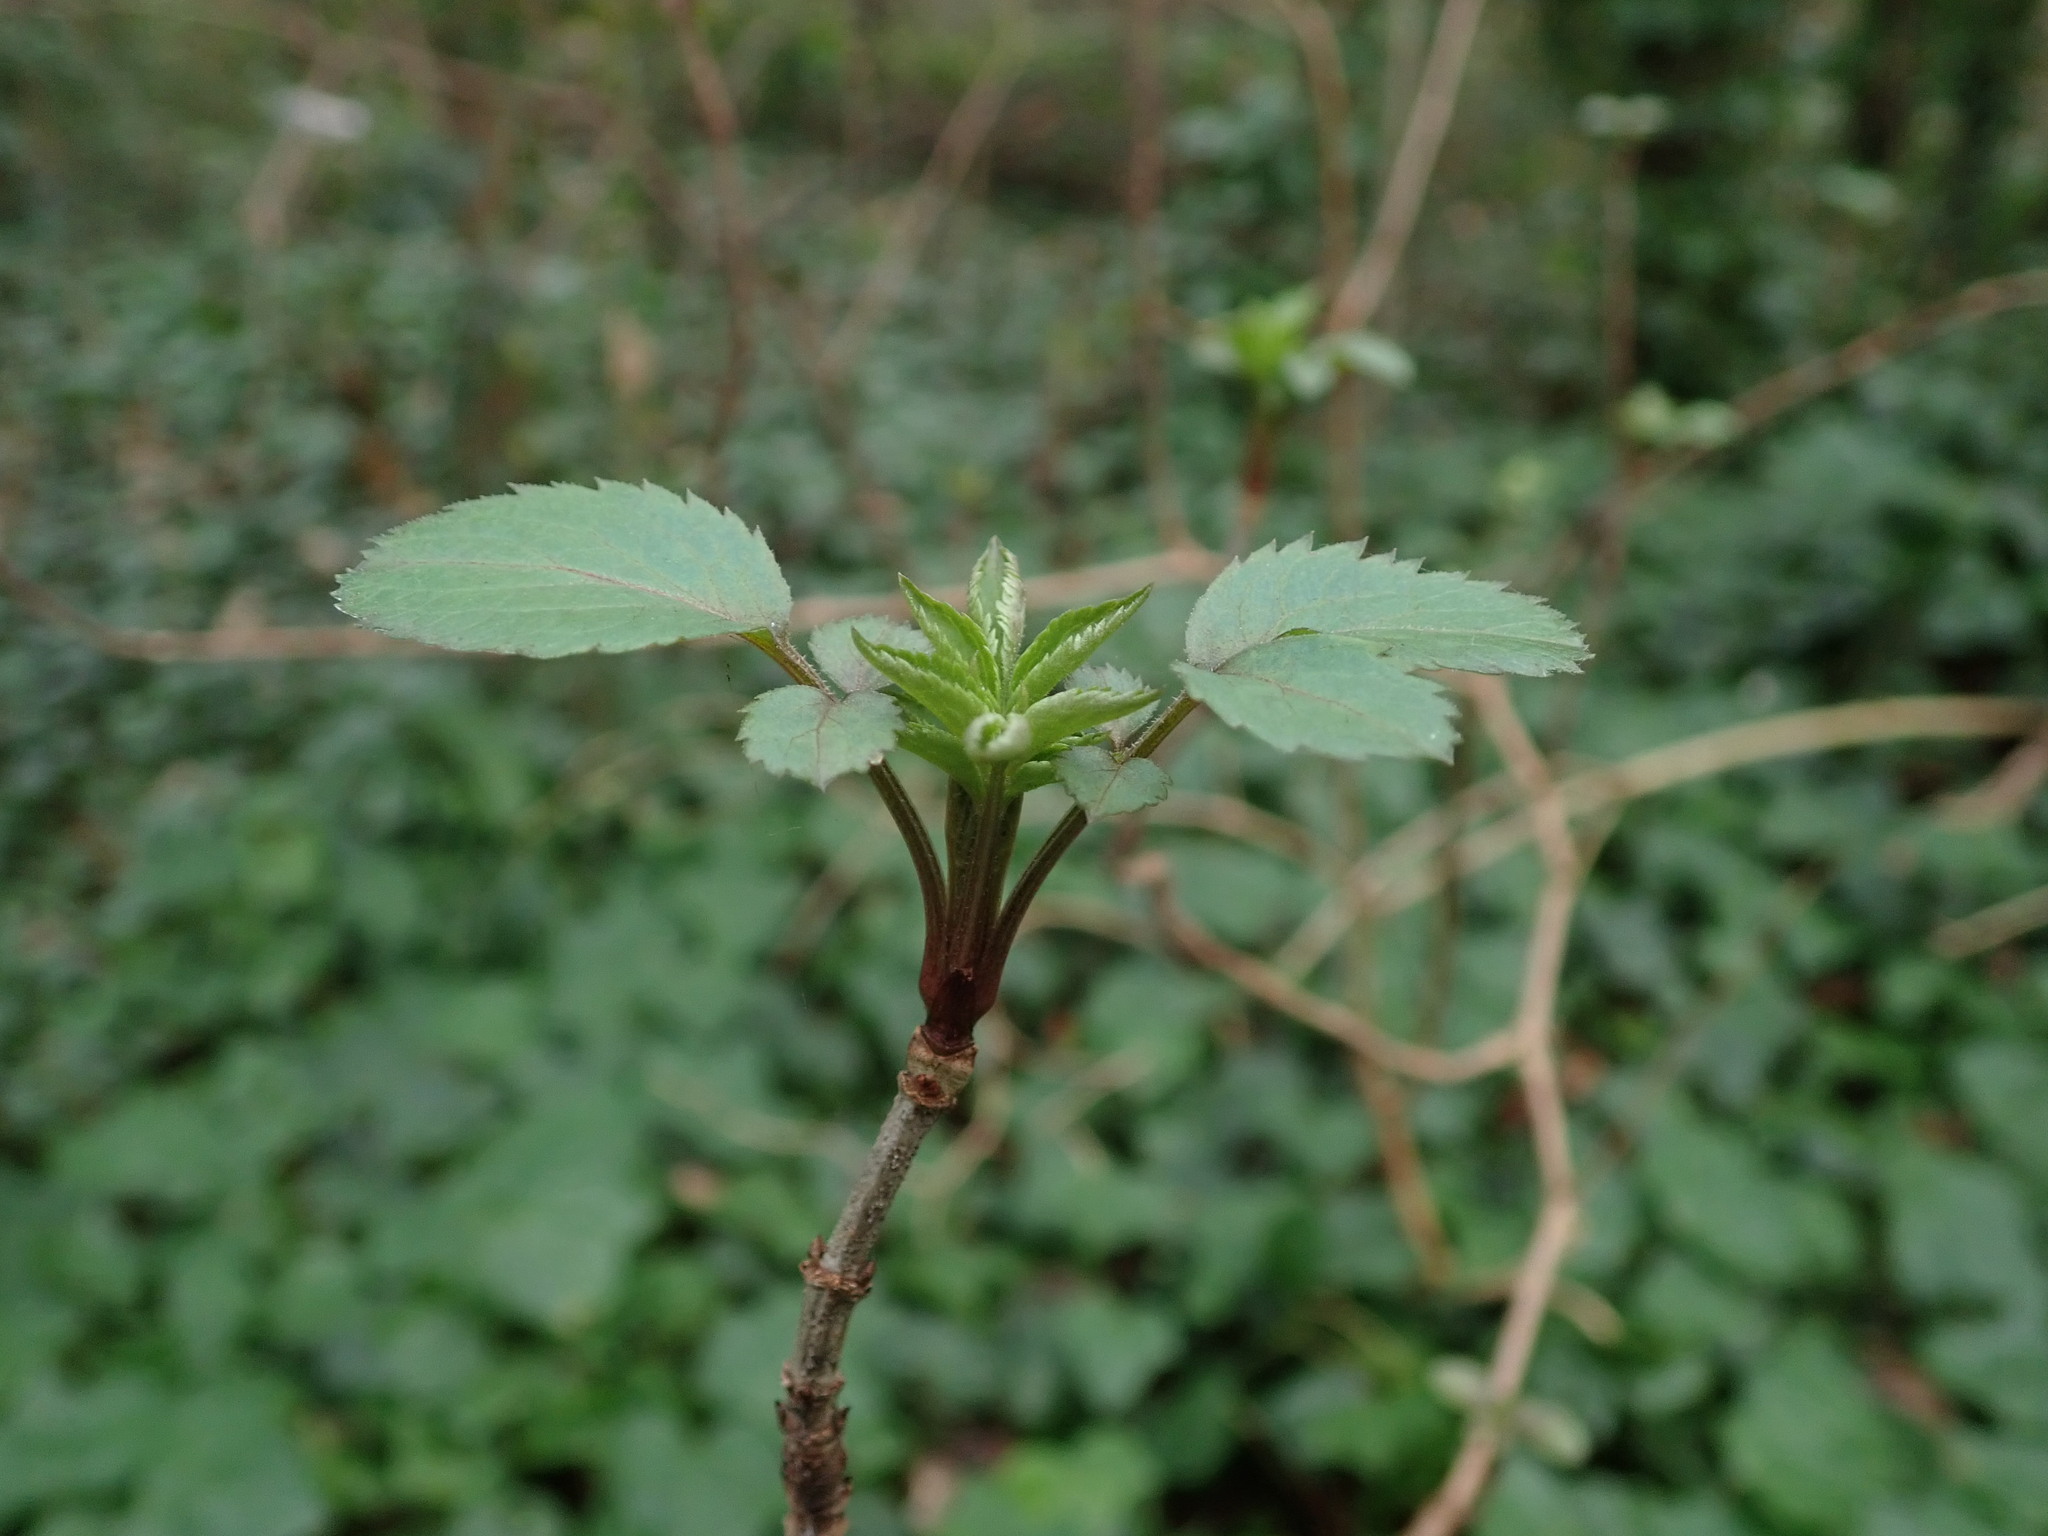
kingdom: Plantae
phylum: Tracheophyta
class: Magnoliopsida
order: Dipsacales
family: Viburnaceae
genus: Sambucus
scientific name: Sambucus nigra
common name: Elder
